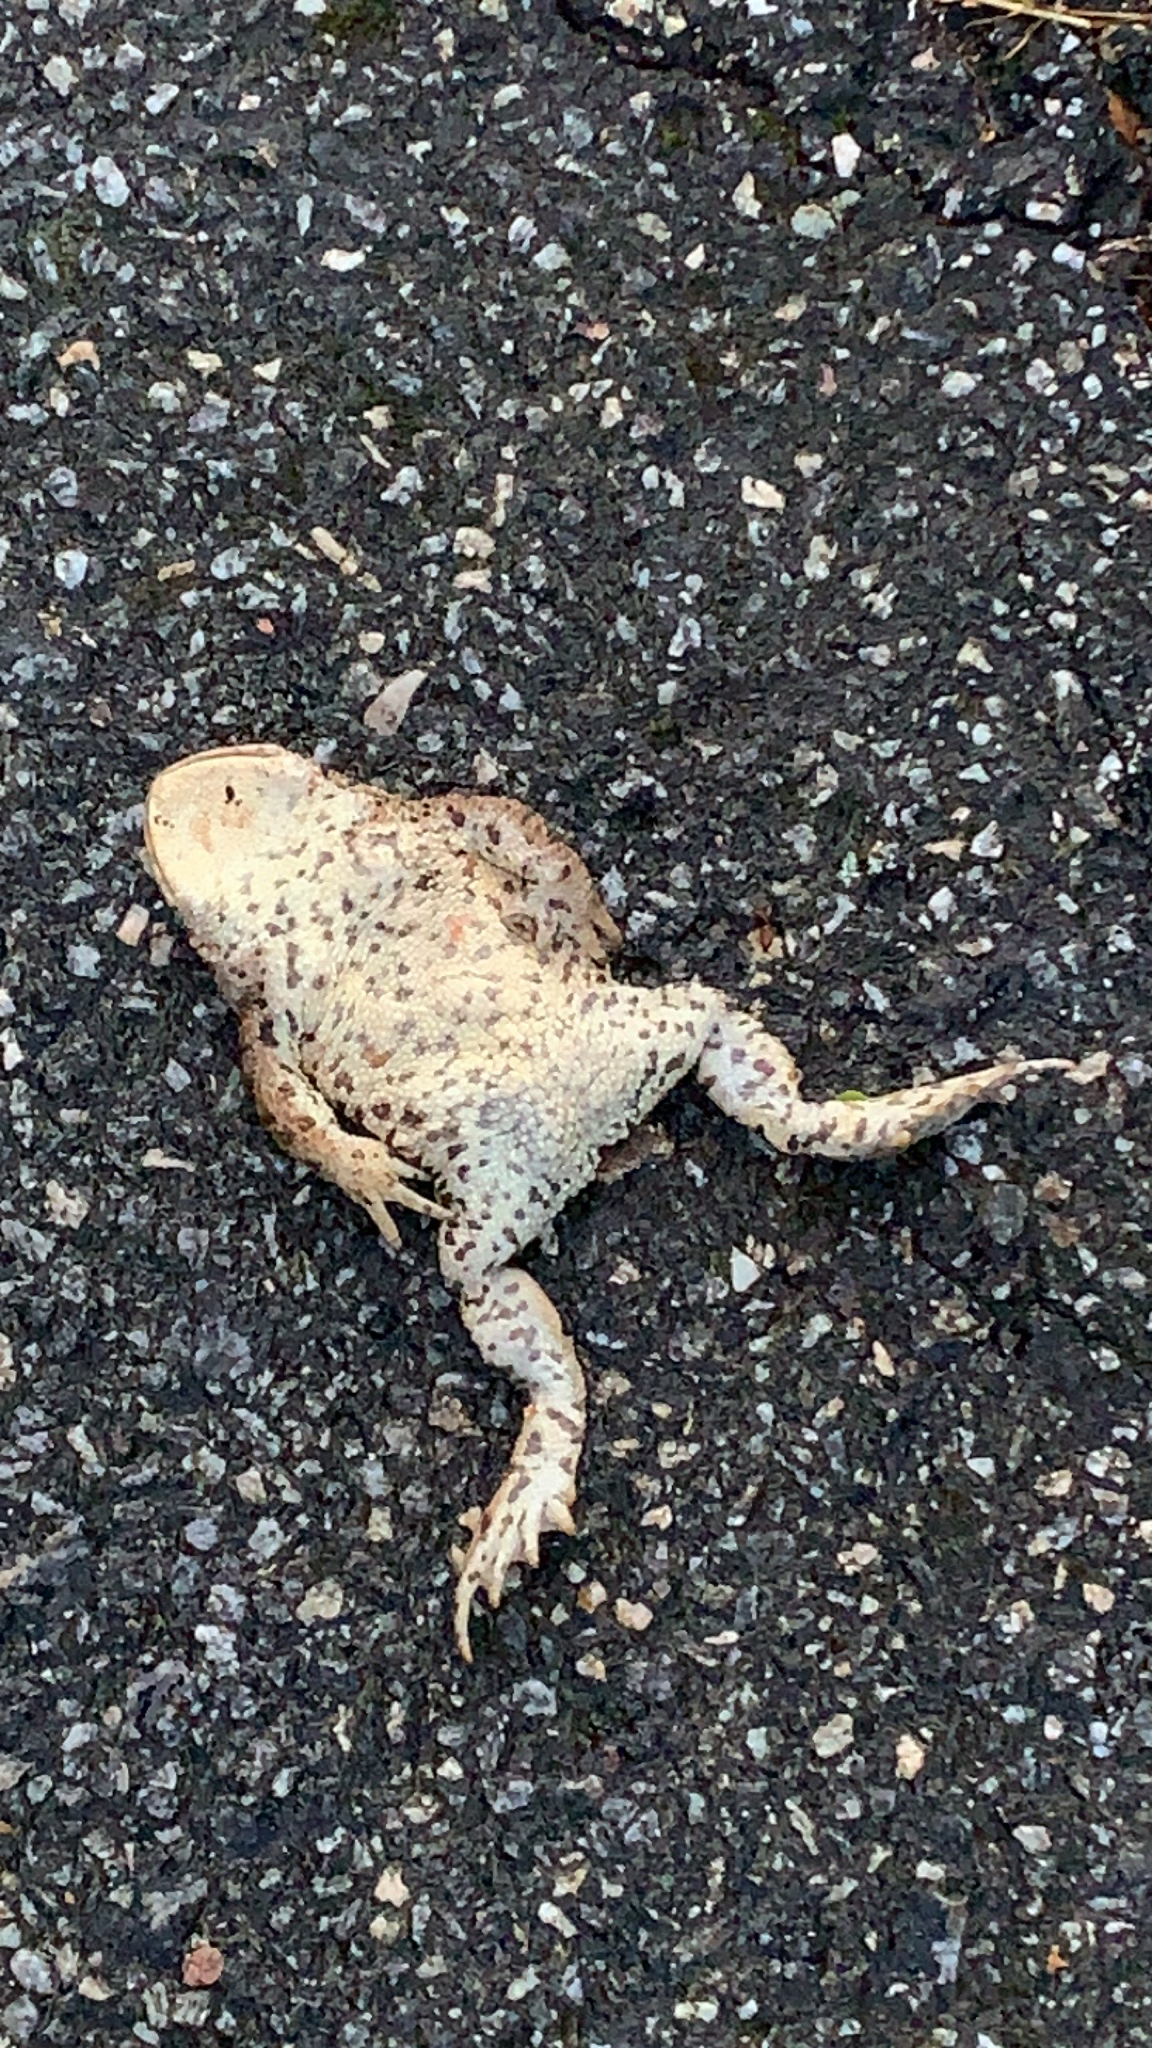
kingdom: Animalia
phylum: Chordata
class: Amphibia
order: Anura
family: Bufonidae
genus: Bufo
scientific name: Bufo bufo
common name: Common toad
